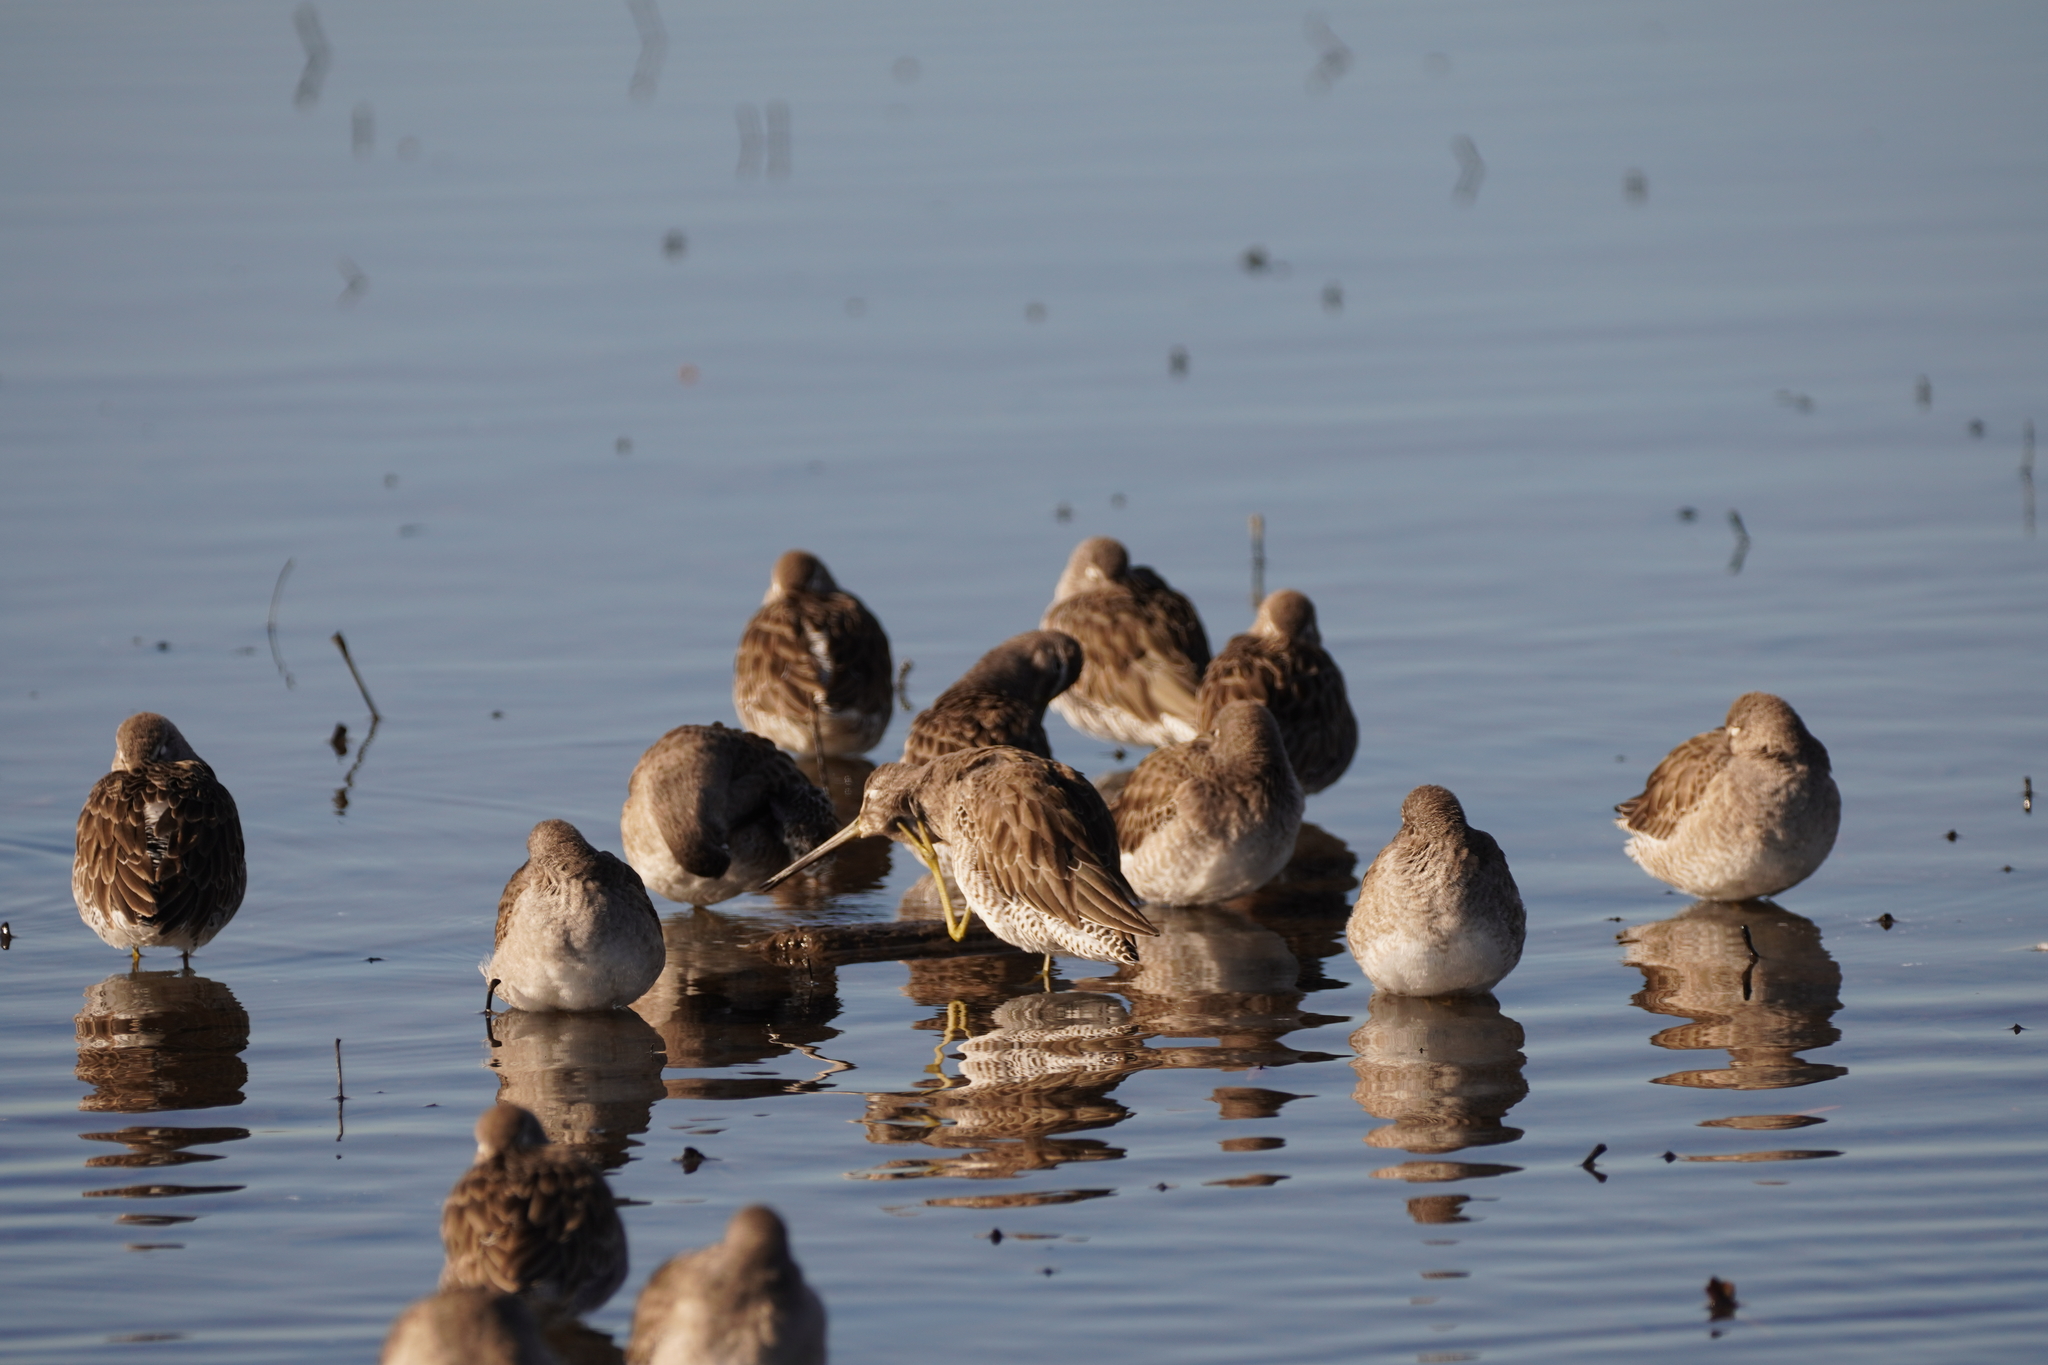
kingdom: Animalia
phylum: Chordata
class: Aves
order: Charadriiformes
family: Scolopacidae
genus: Limnodromus
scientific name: Limnodromus scolopaceus
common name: Long-billed dowitcher
